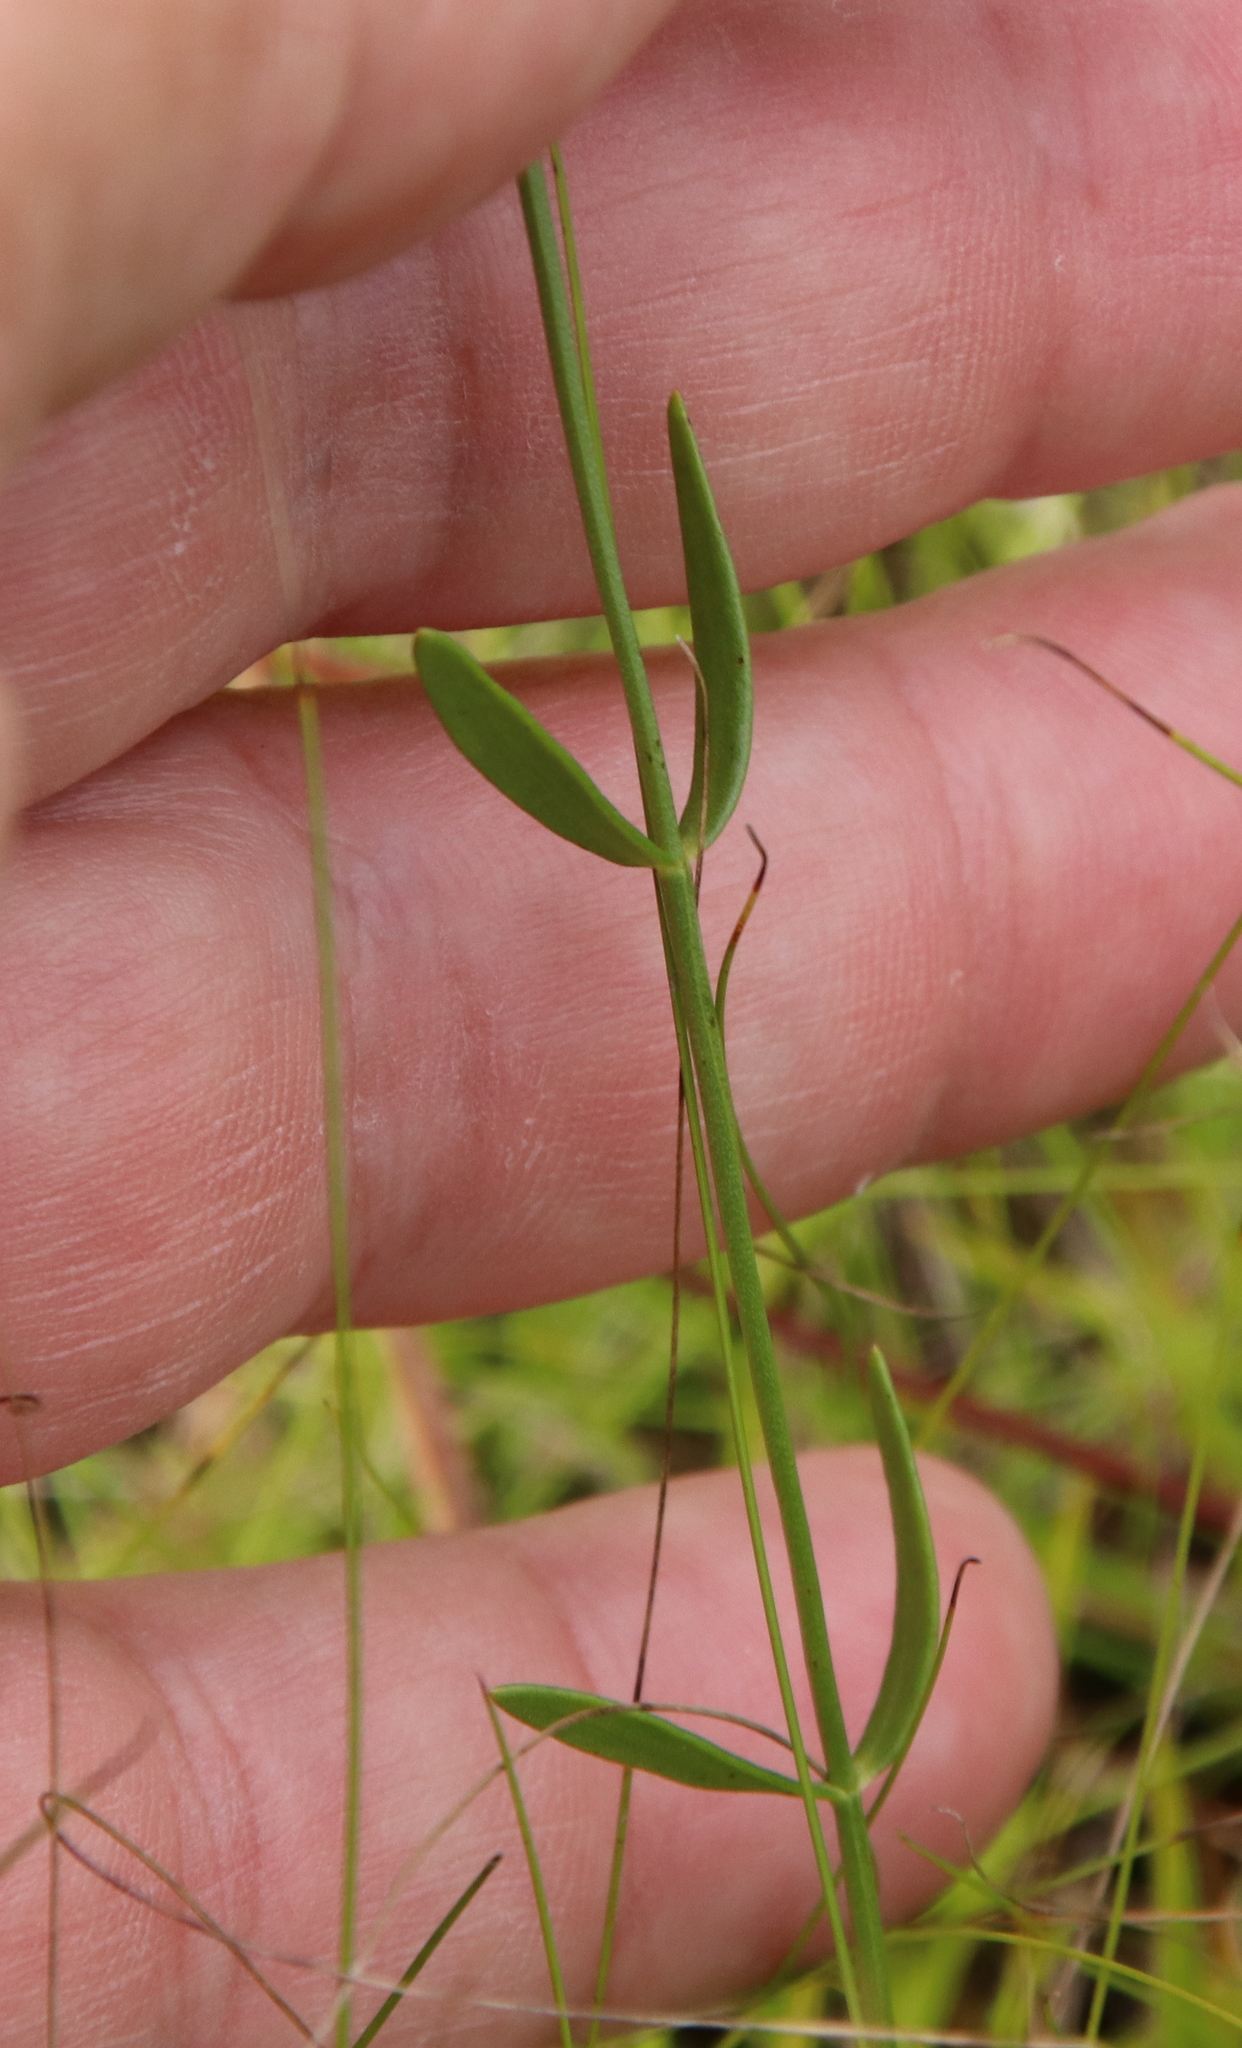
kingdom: Plantae
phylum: Tracheophyta
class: Magnoliopsida
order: Gentianales
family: Gentianaceae
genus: Sabatia
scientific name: Sabatia campanulata
